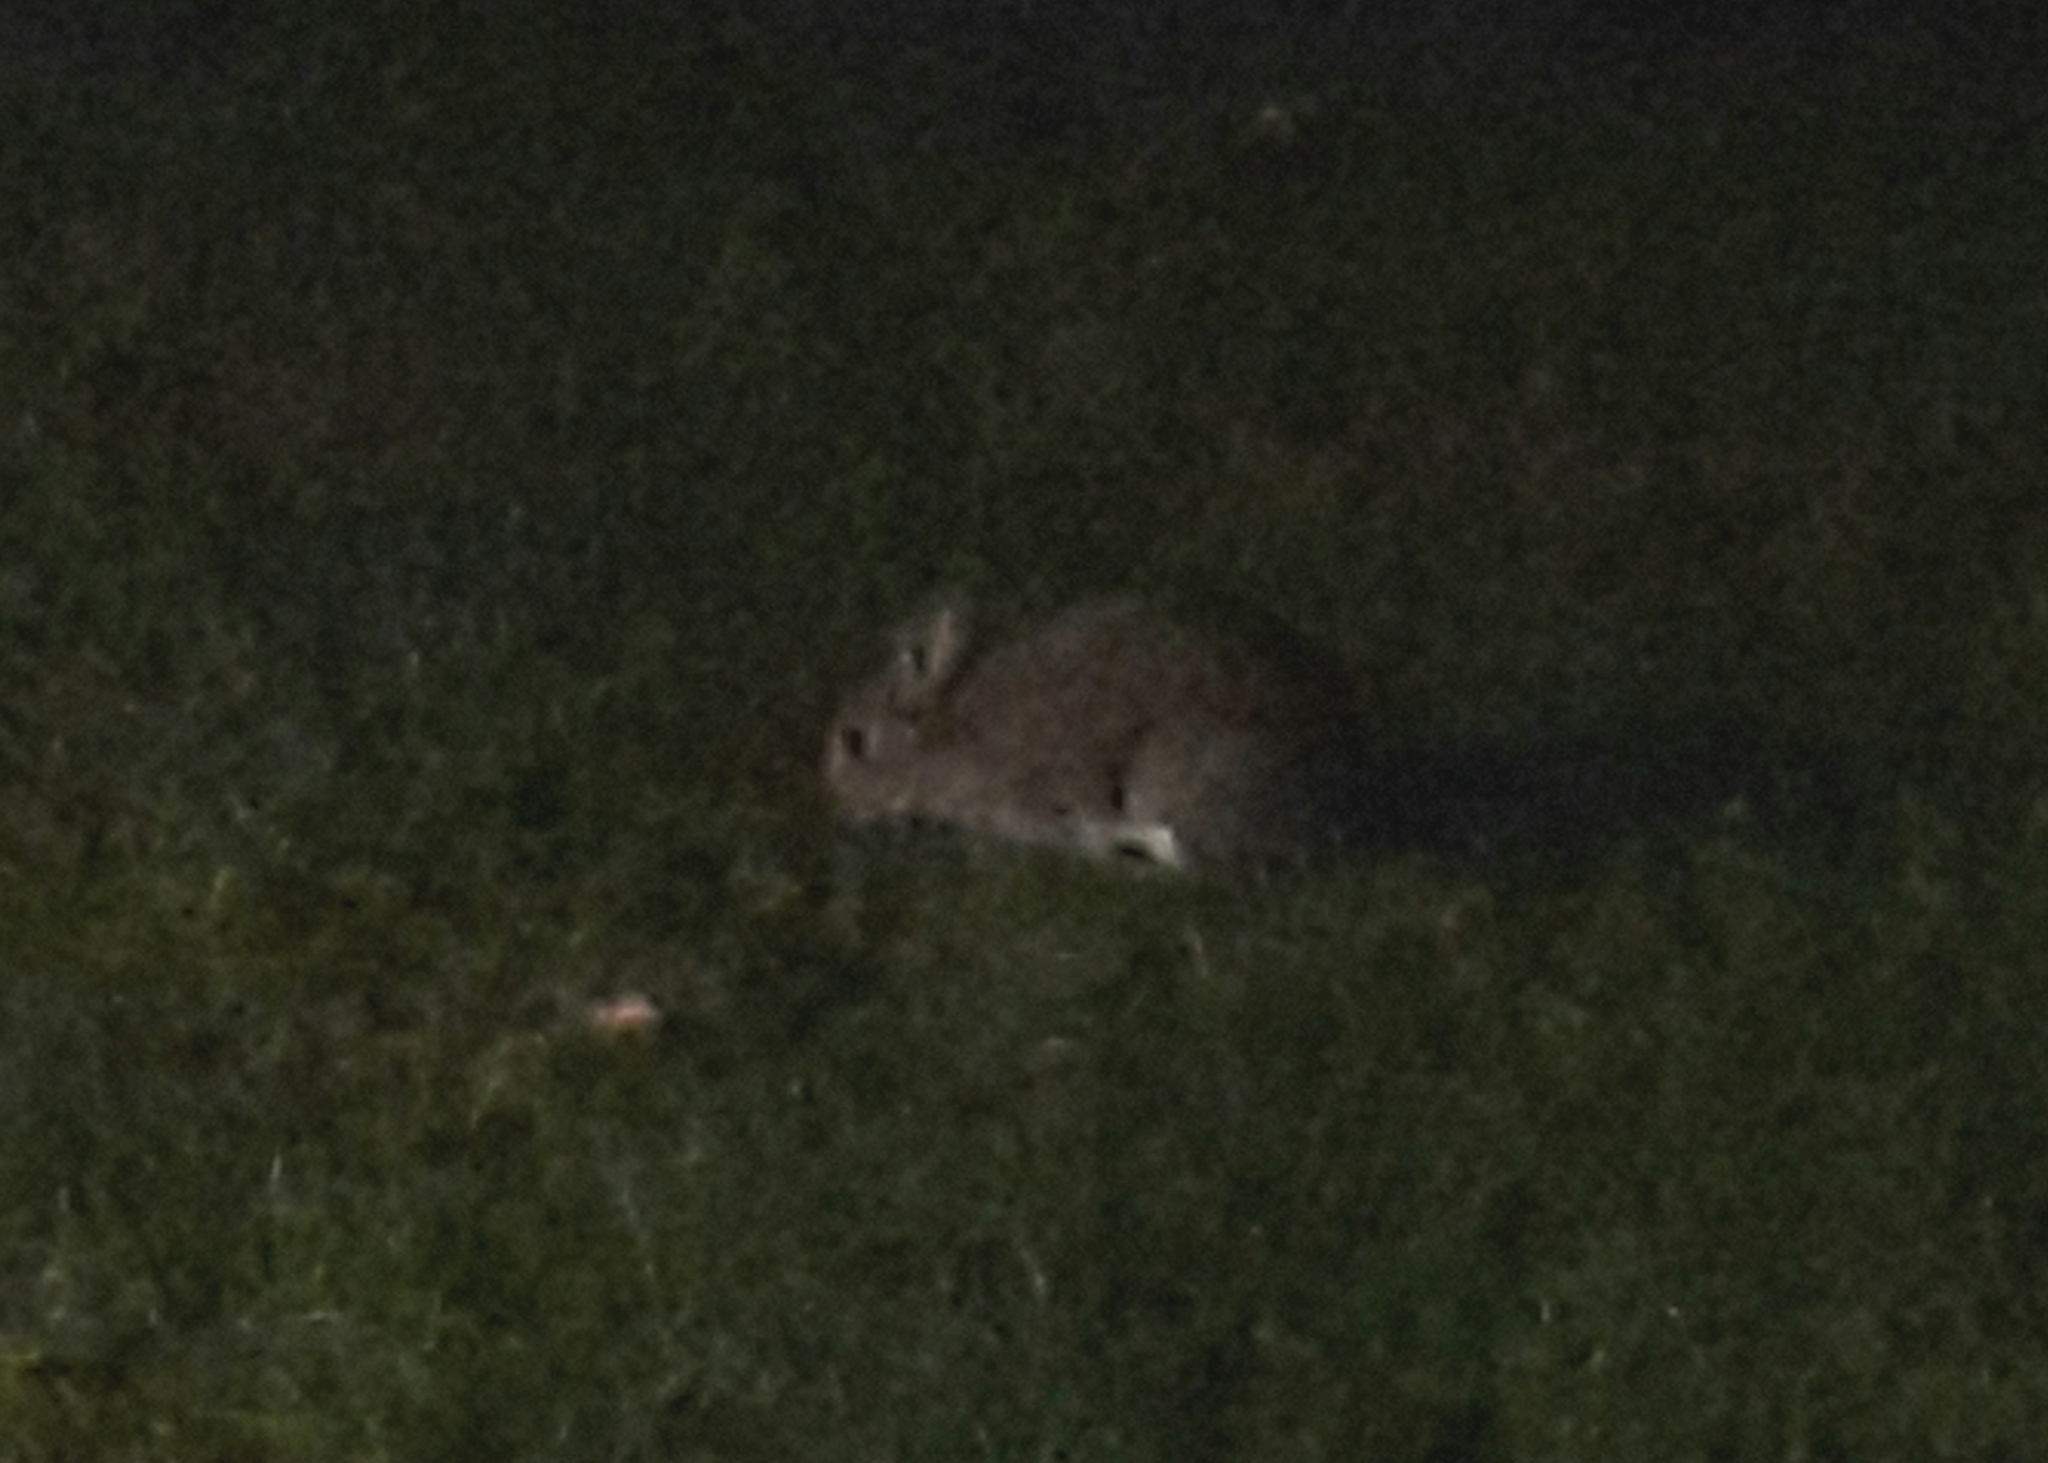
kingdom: Animalia
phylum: Chordata
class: Mammalia
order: Lagomorpha
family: Leporidae
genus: Oryctolagus
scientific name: Oryctolagus cuniculus
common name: European rabbit
